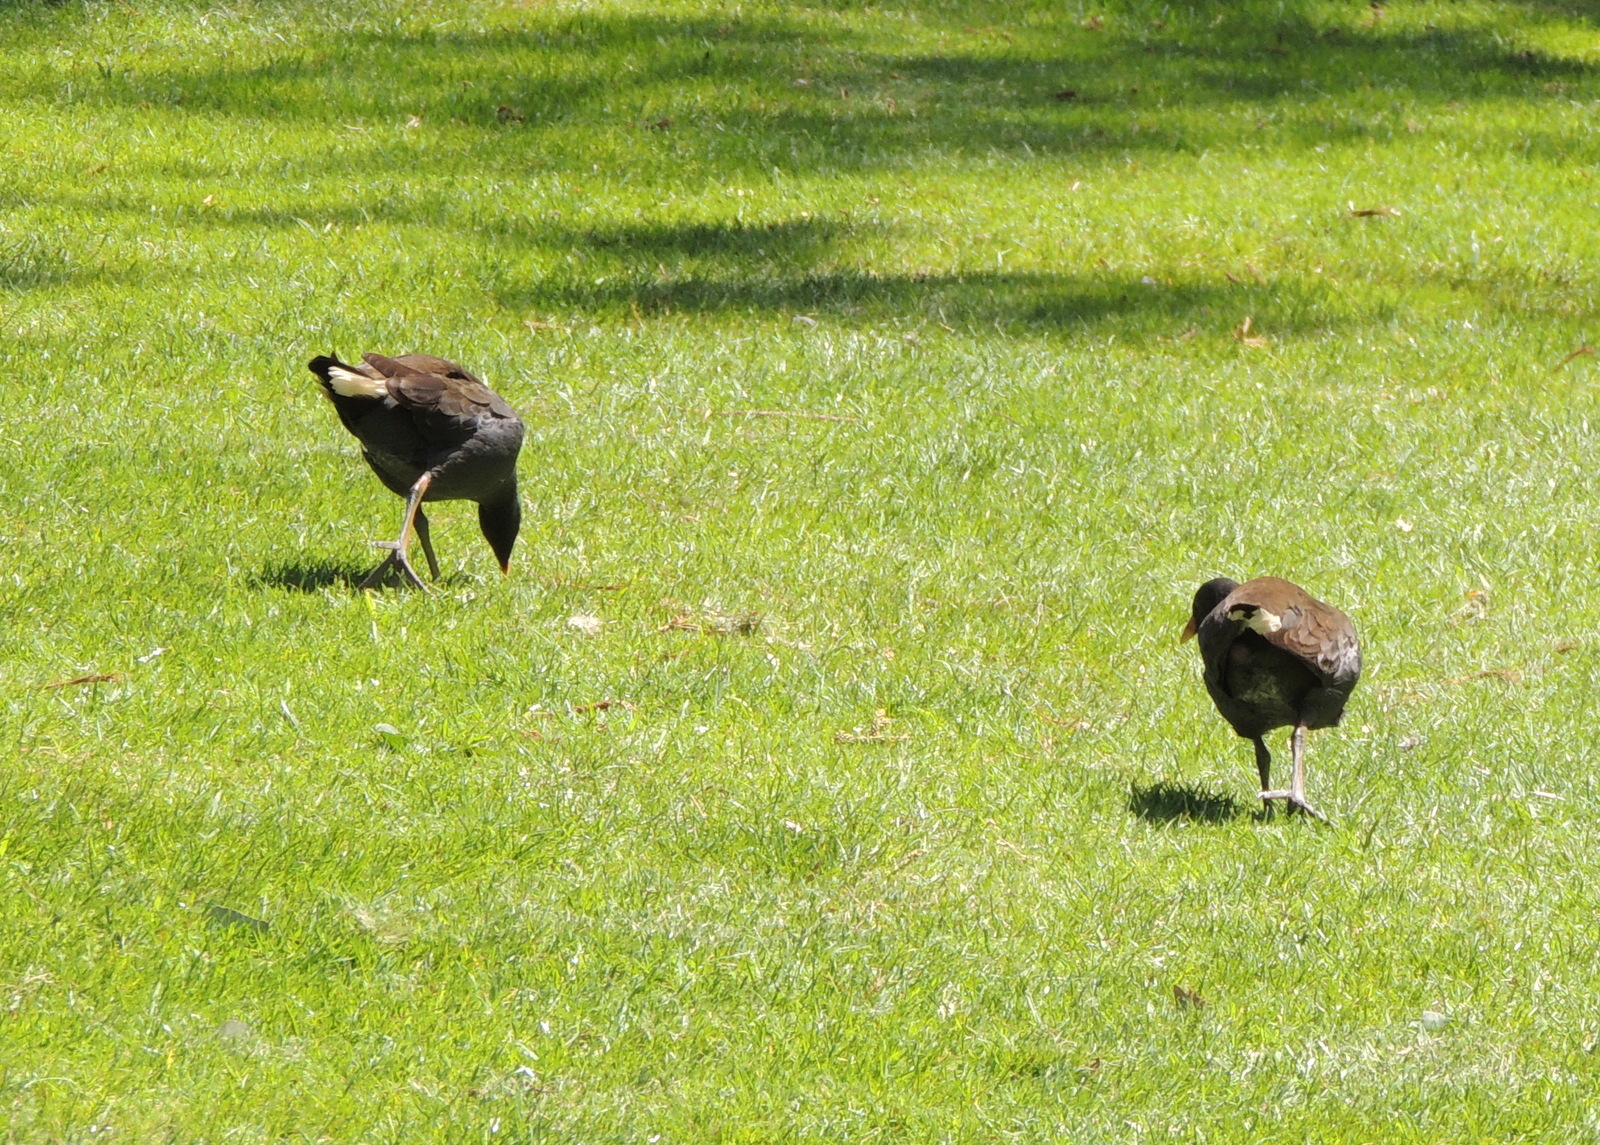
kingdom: Animalia
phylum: Chordata
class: Aves
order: Gruiformes
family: Rallidae
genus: Gallinula
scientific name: Gallinula tenebrosa
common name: Dusky moorhen
